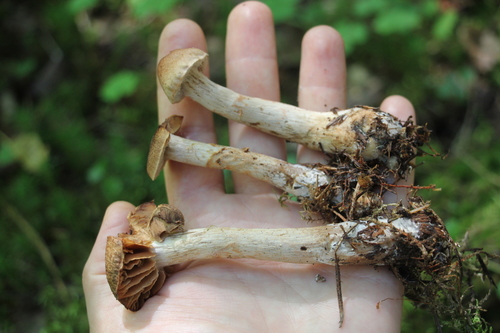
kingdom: Fungi
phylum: Basidiomycota
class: Agaricomycetes
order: Agaricales
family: Cortinariaceae
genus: Cortinarius
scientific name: Cortinarius paragaudis
